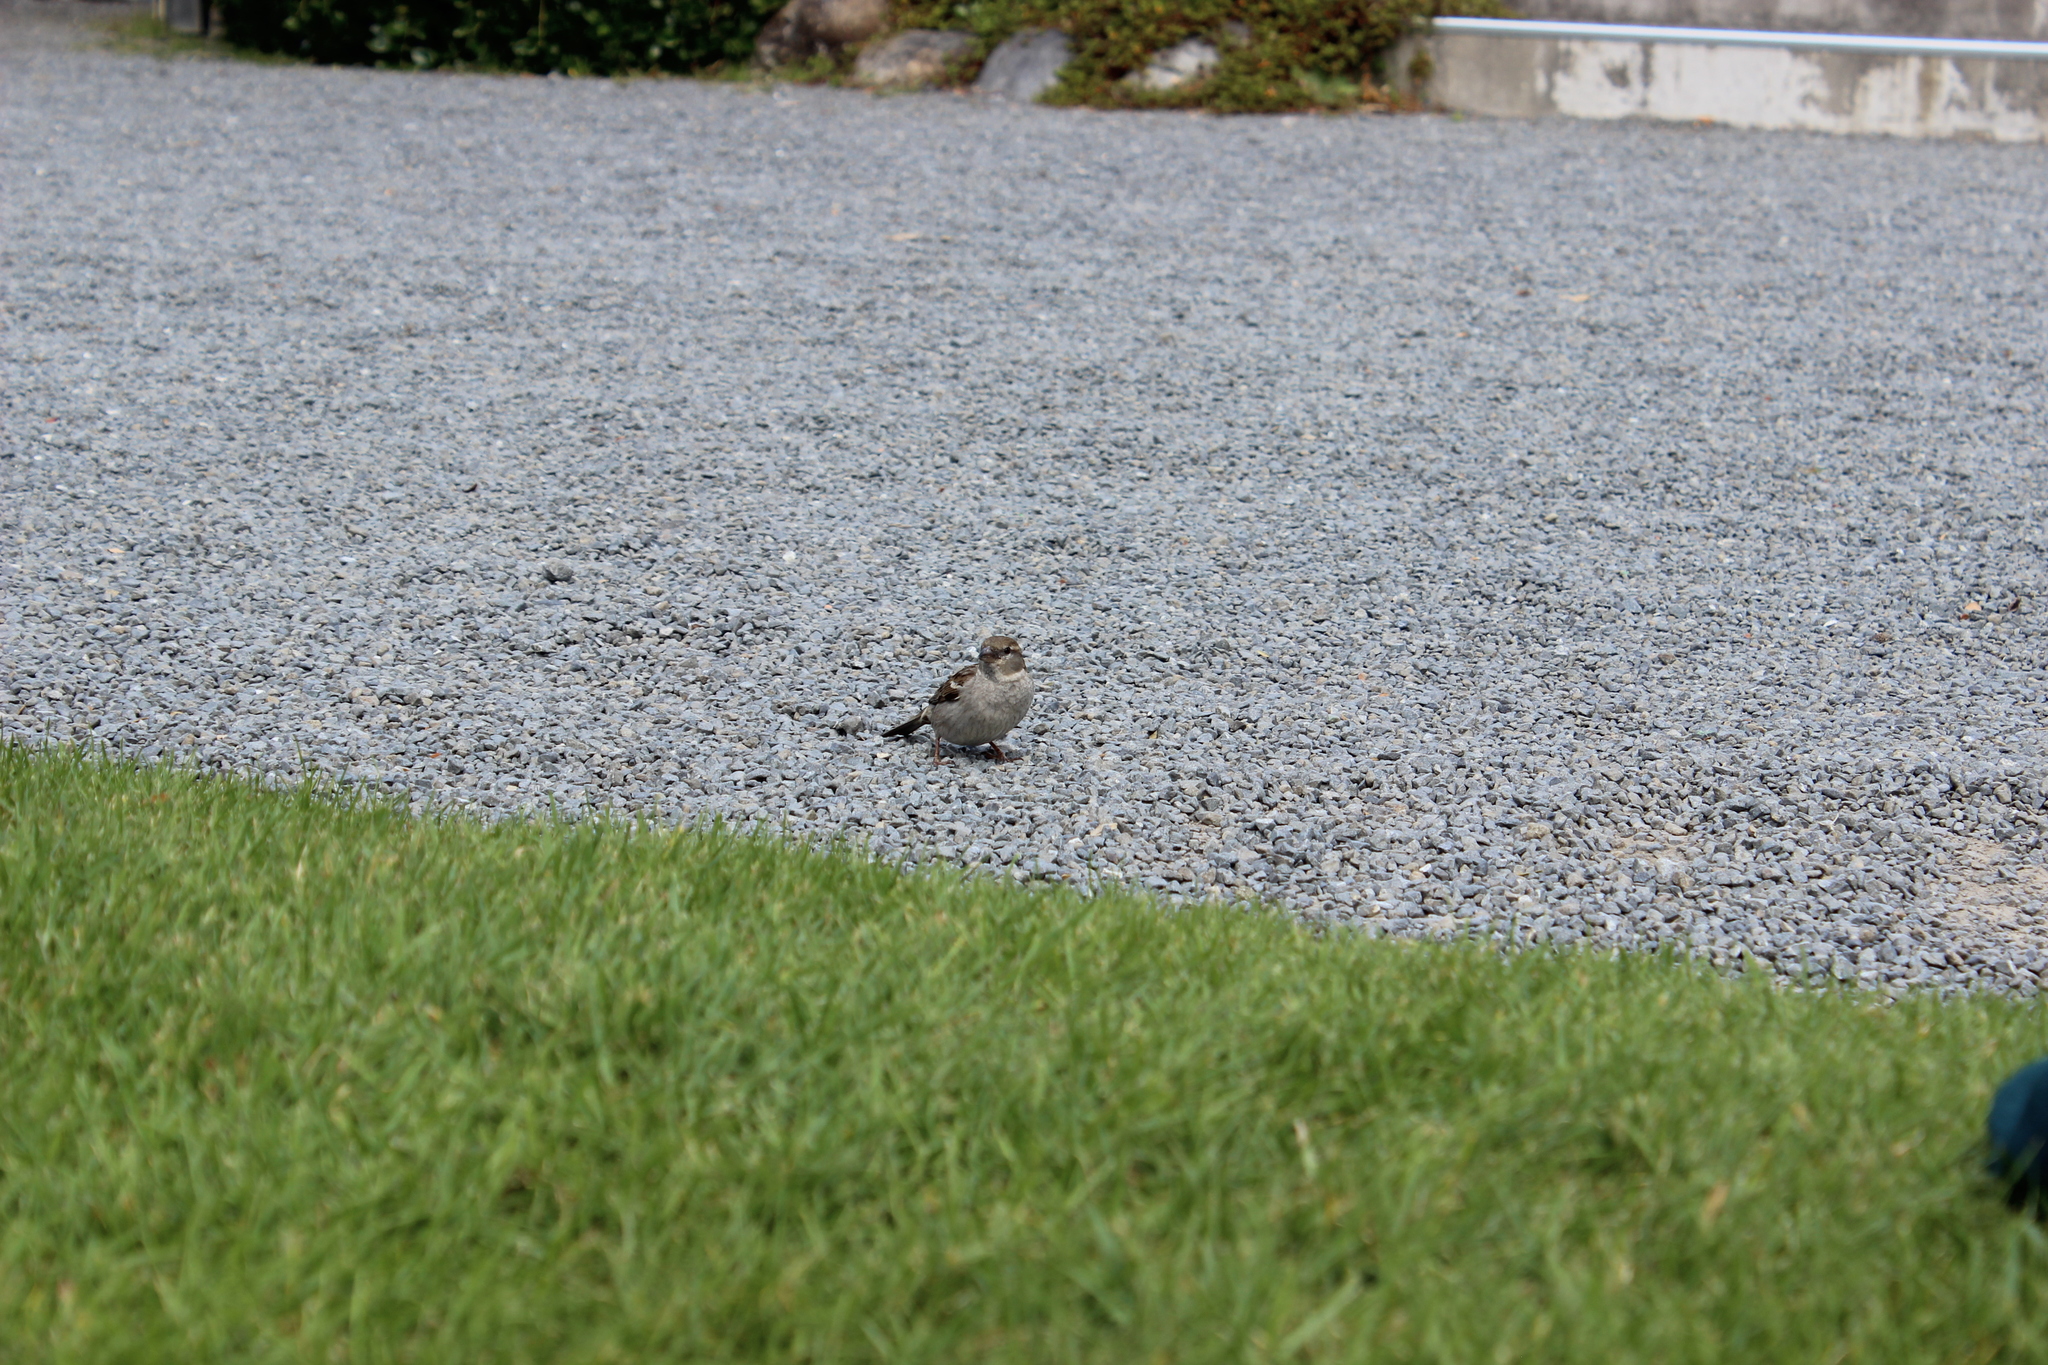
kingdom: Animalia
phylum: Chordata
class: Aves
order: Passeriformes
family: Passeridae
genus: Passer
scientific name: Passer domesticus
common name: House sparrow
